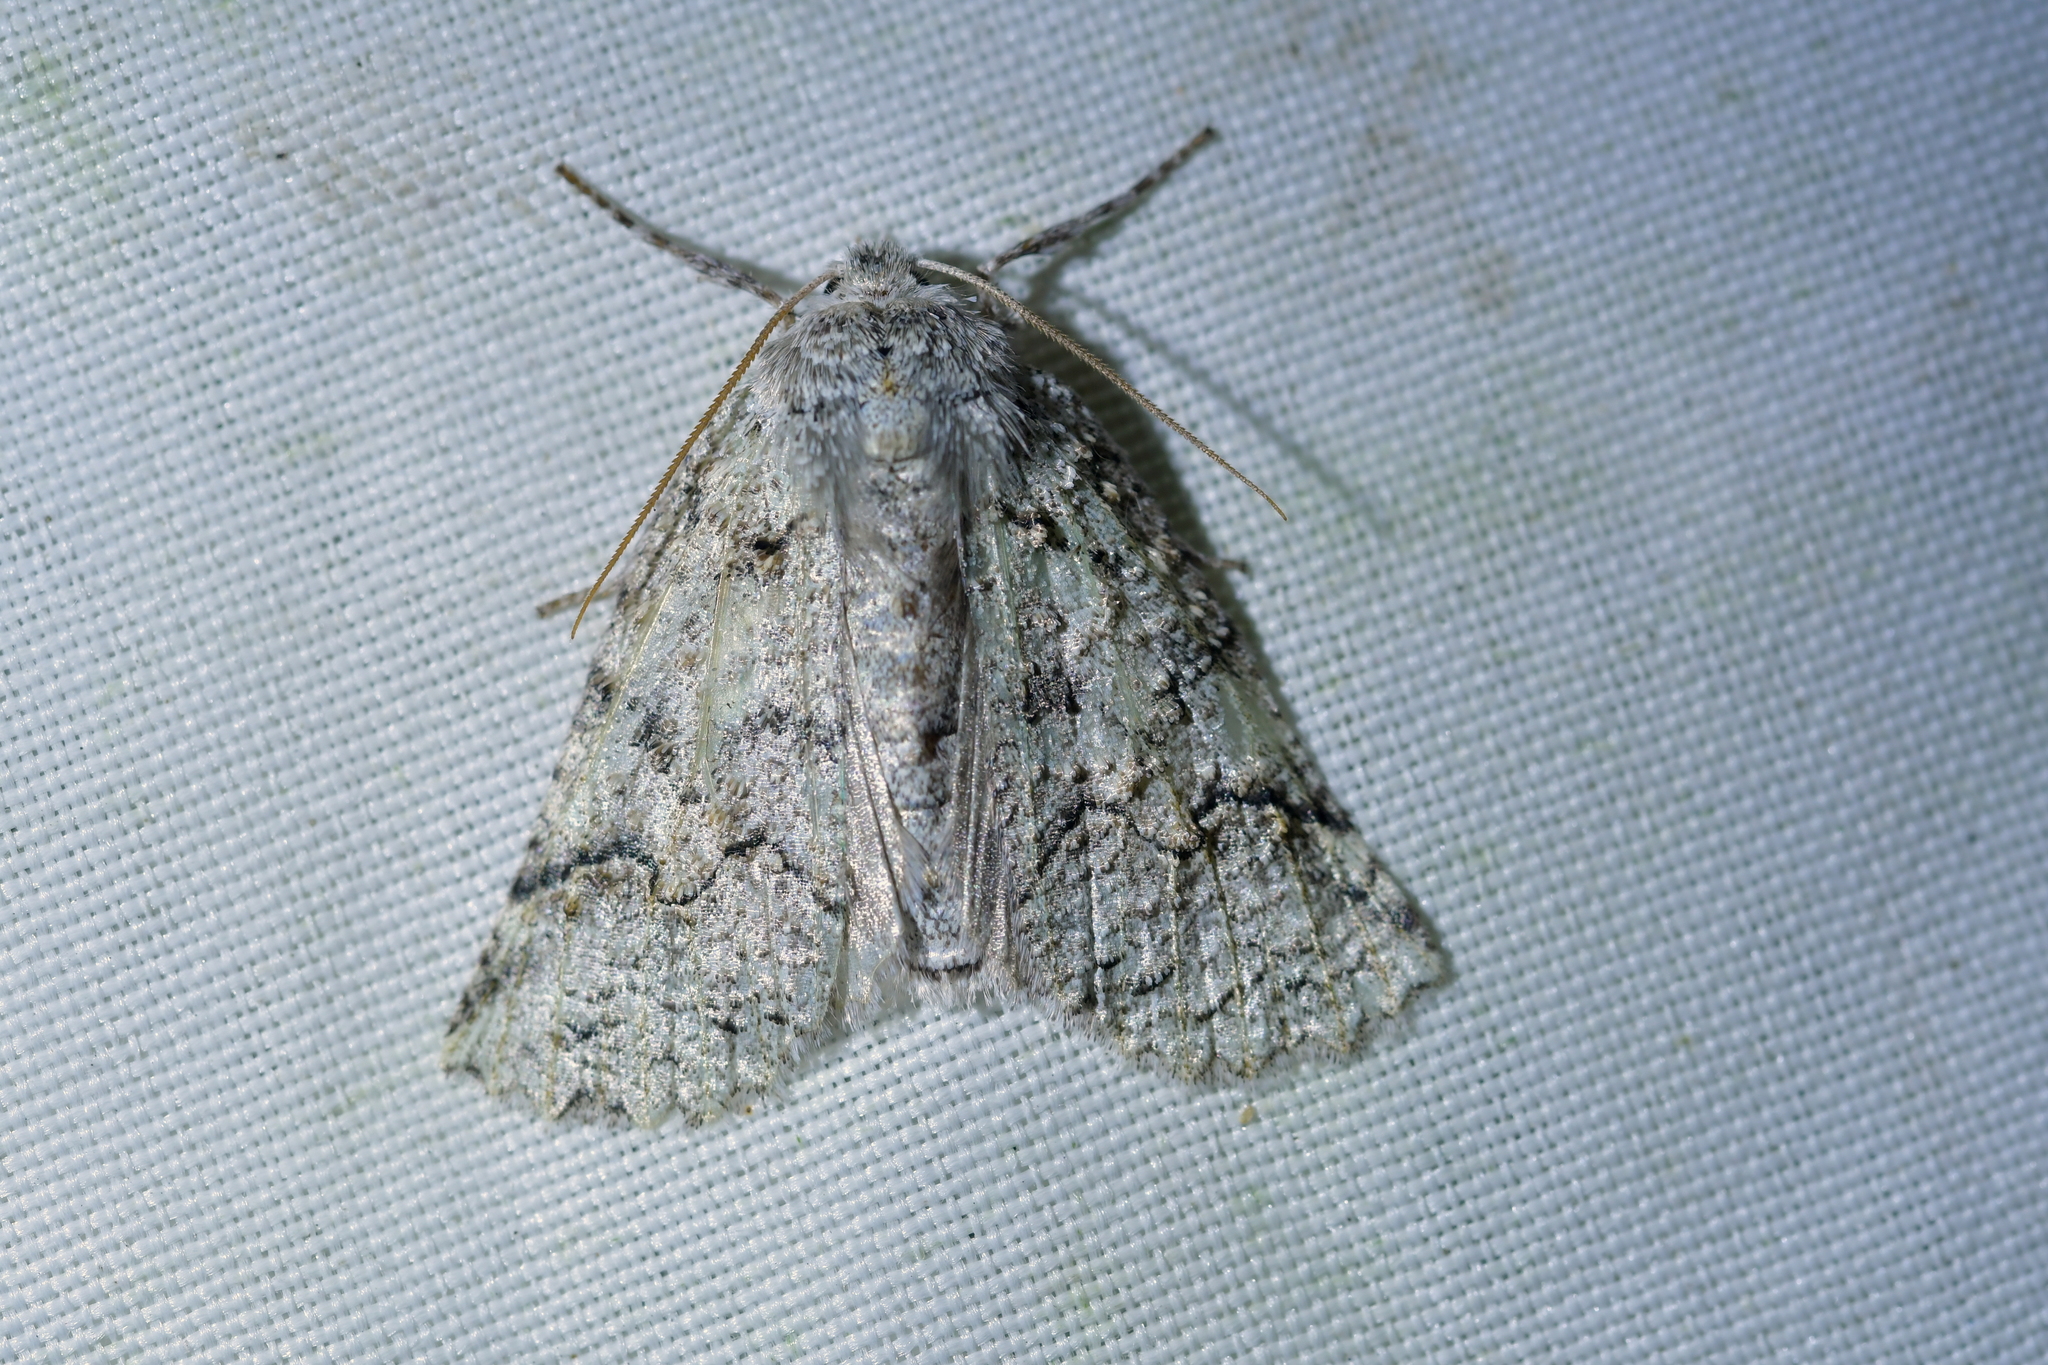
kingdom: Animalia
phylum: Arthropoda
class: Insecta
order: Lepidoptera
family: Geometridae
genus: Declana
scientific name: Declana floccosa
